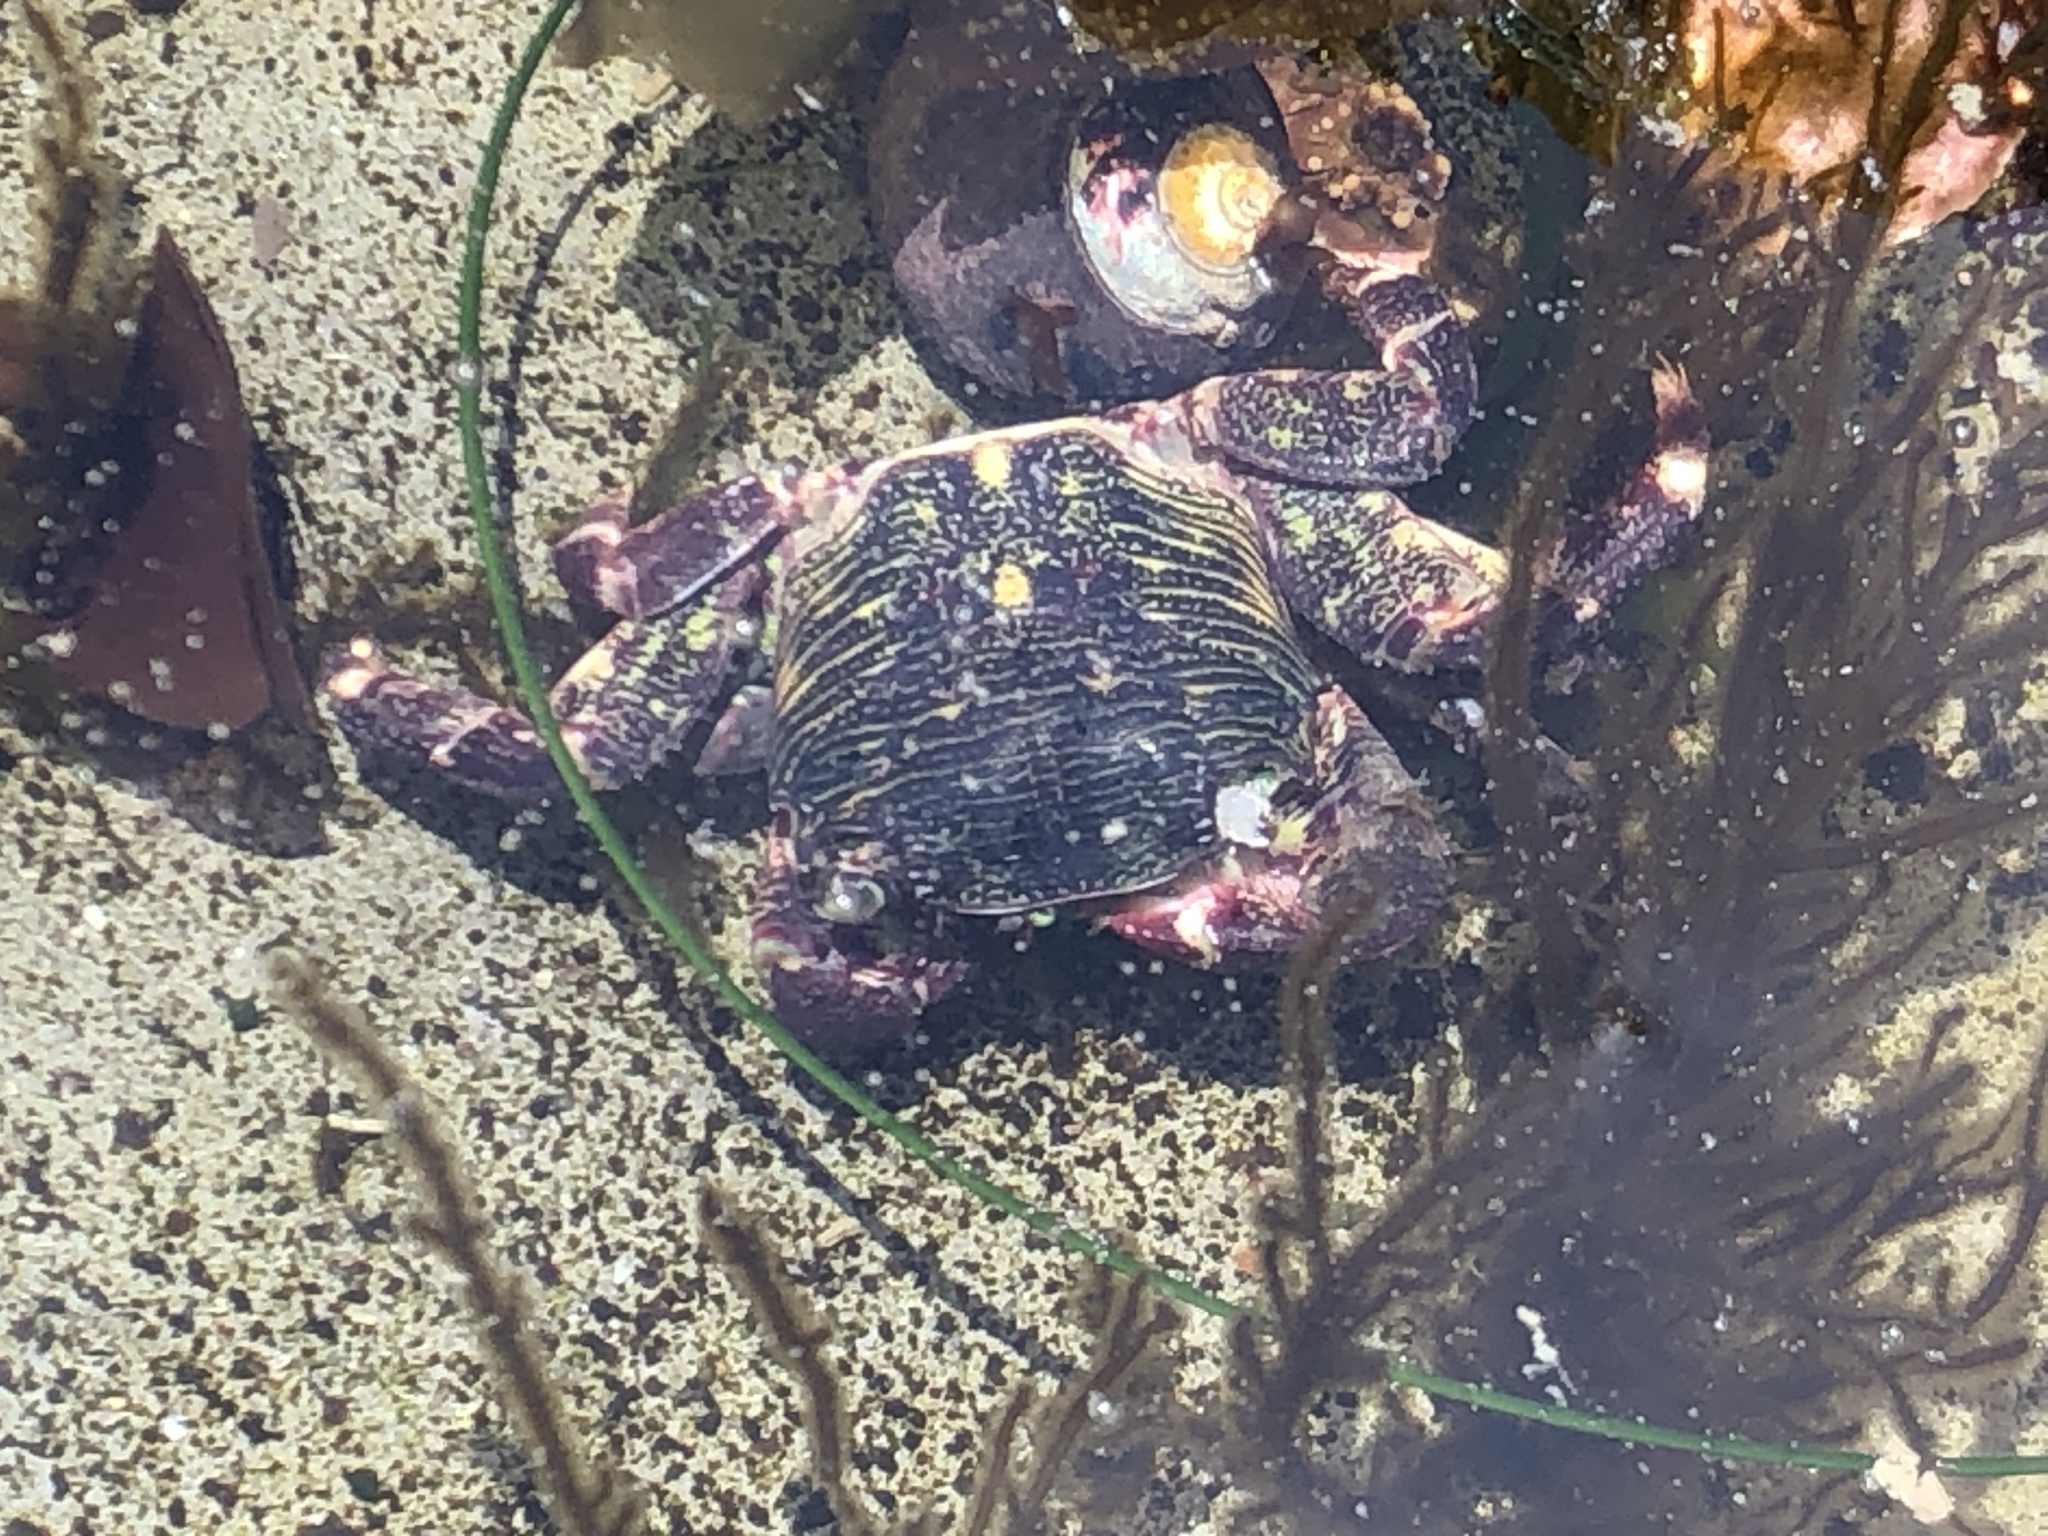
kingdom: Animalia
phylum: Arthropoda
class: Malacostraca
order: Decapoda
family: Grapsidae
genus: Pachygrapsus
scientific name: Pachygrapsus crassipes
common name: Striped shore crab
